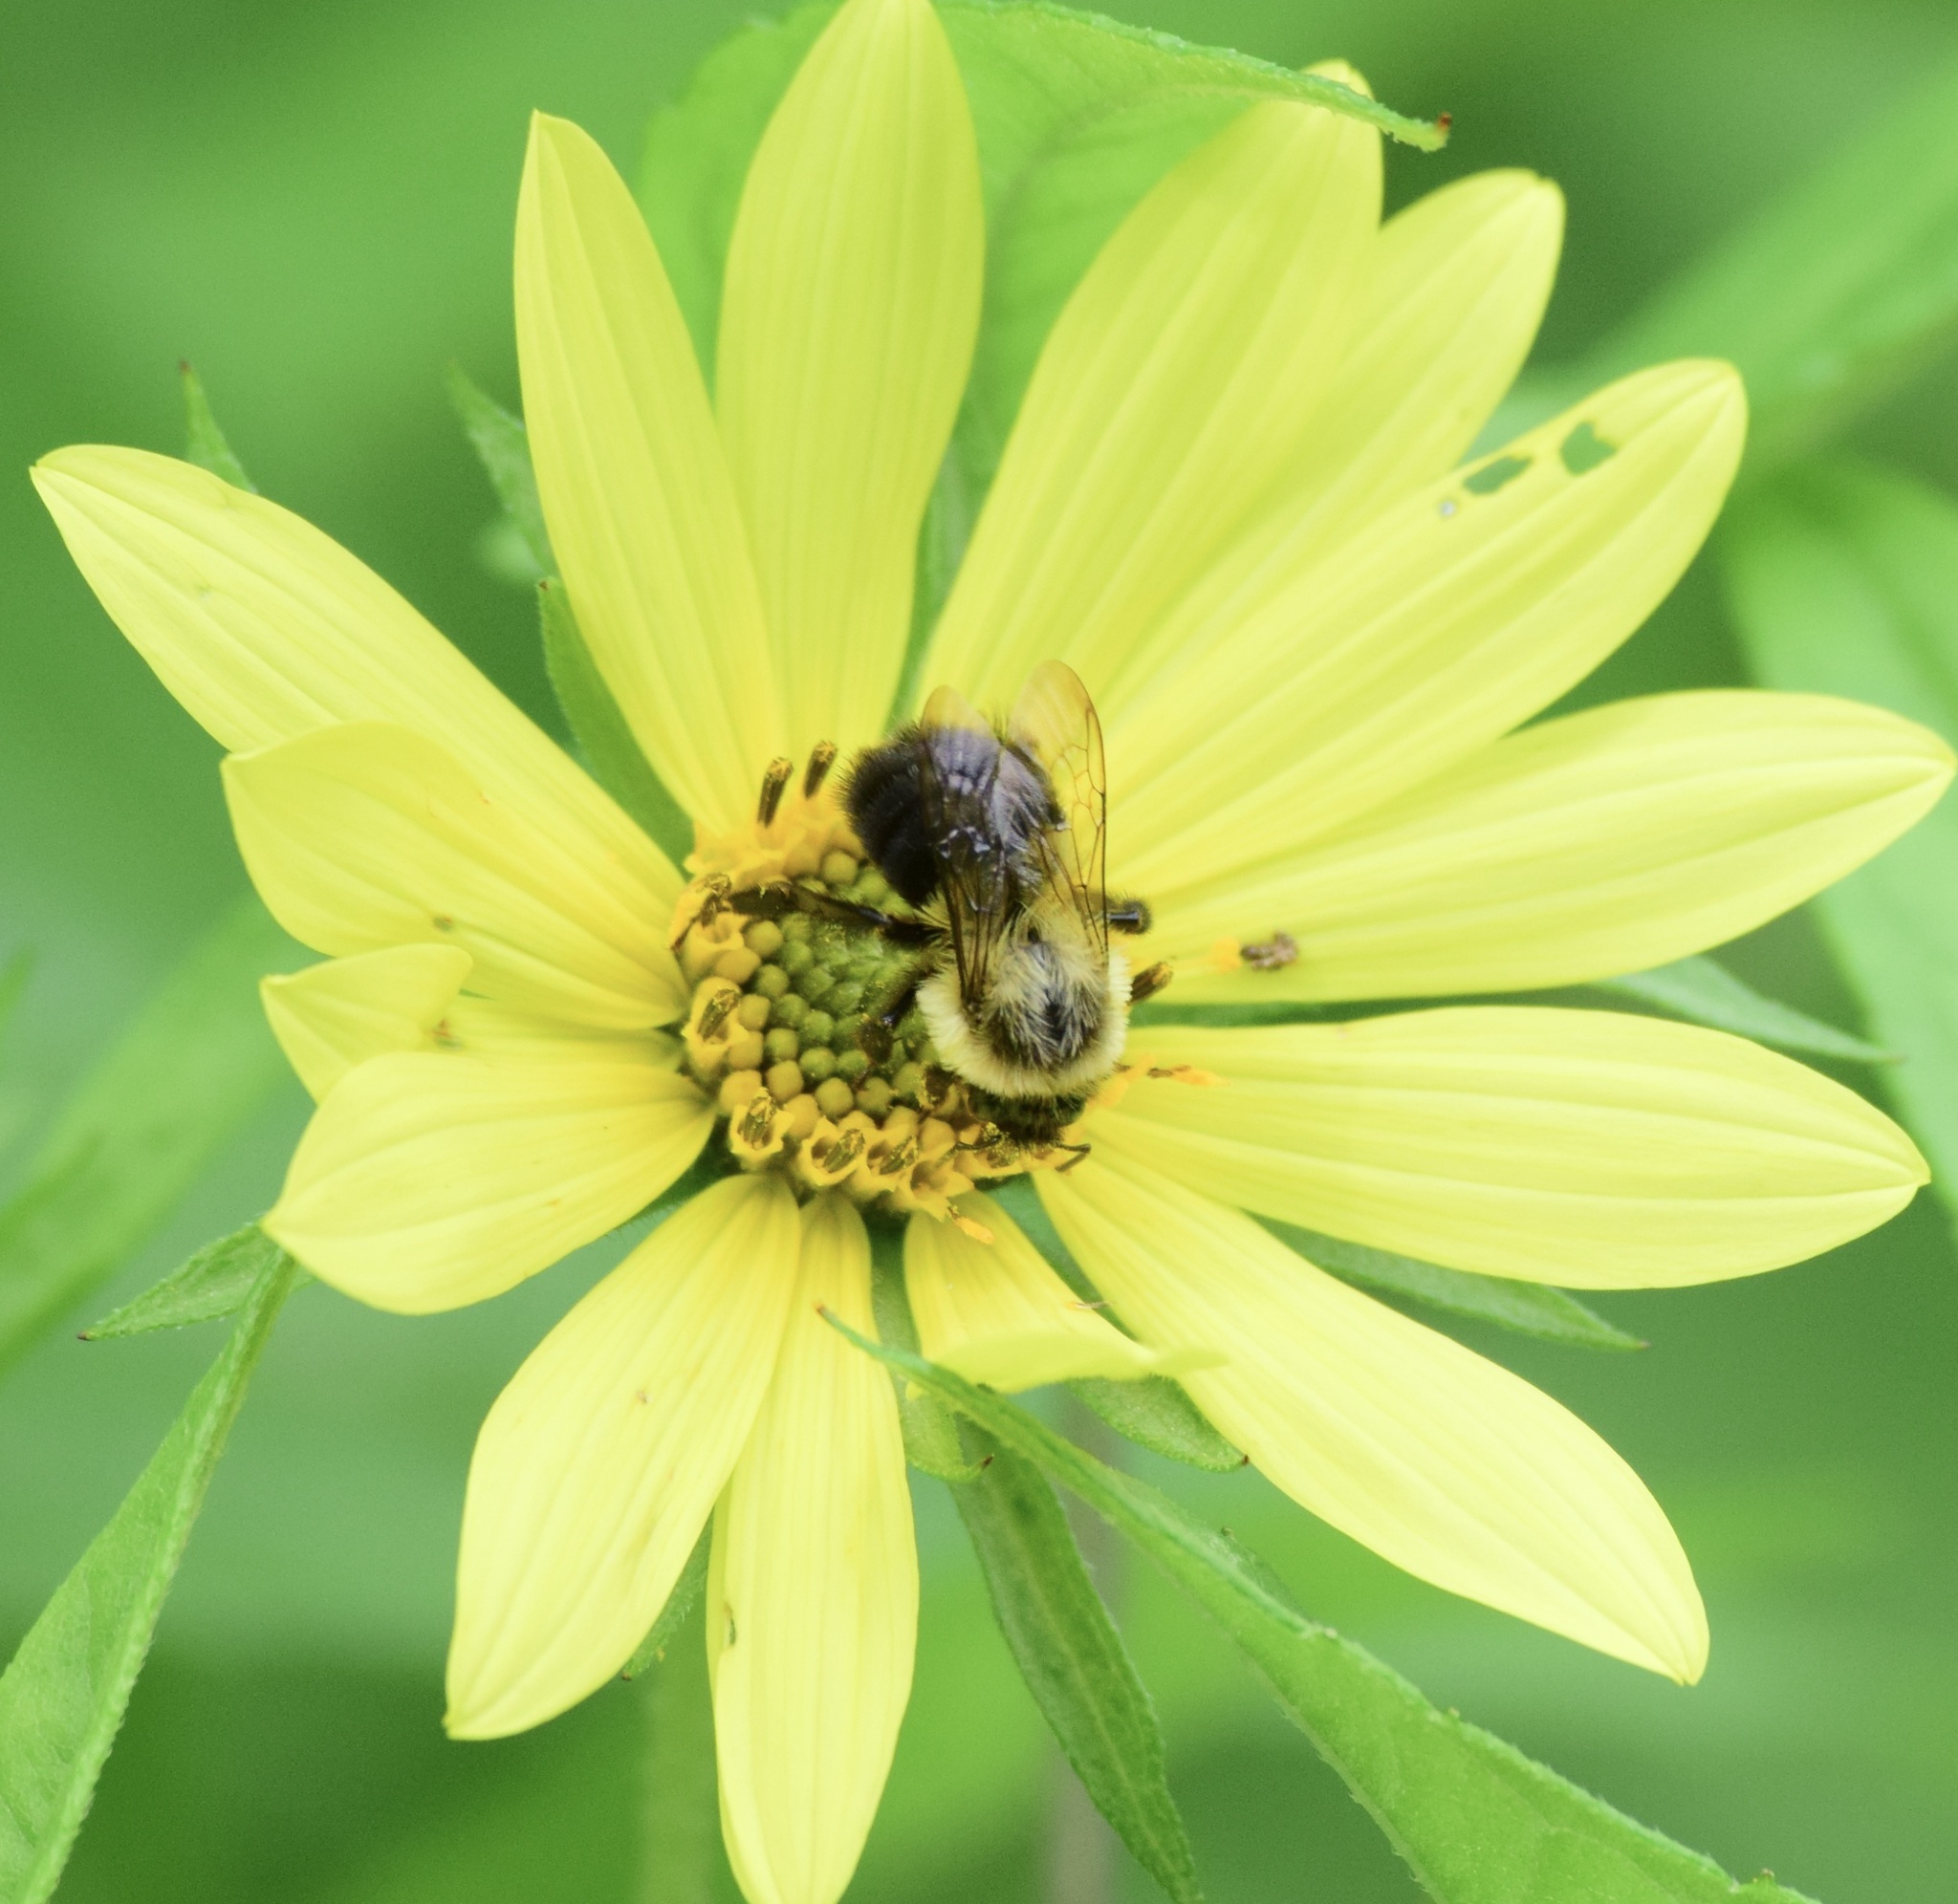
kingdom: Animalia
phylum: Arthropoda
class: Insecta
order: Hymenoptera
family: Apidae
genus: Bombus
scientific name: Bombus impatiens
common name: Common eastern bumble bee
